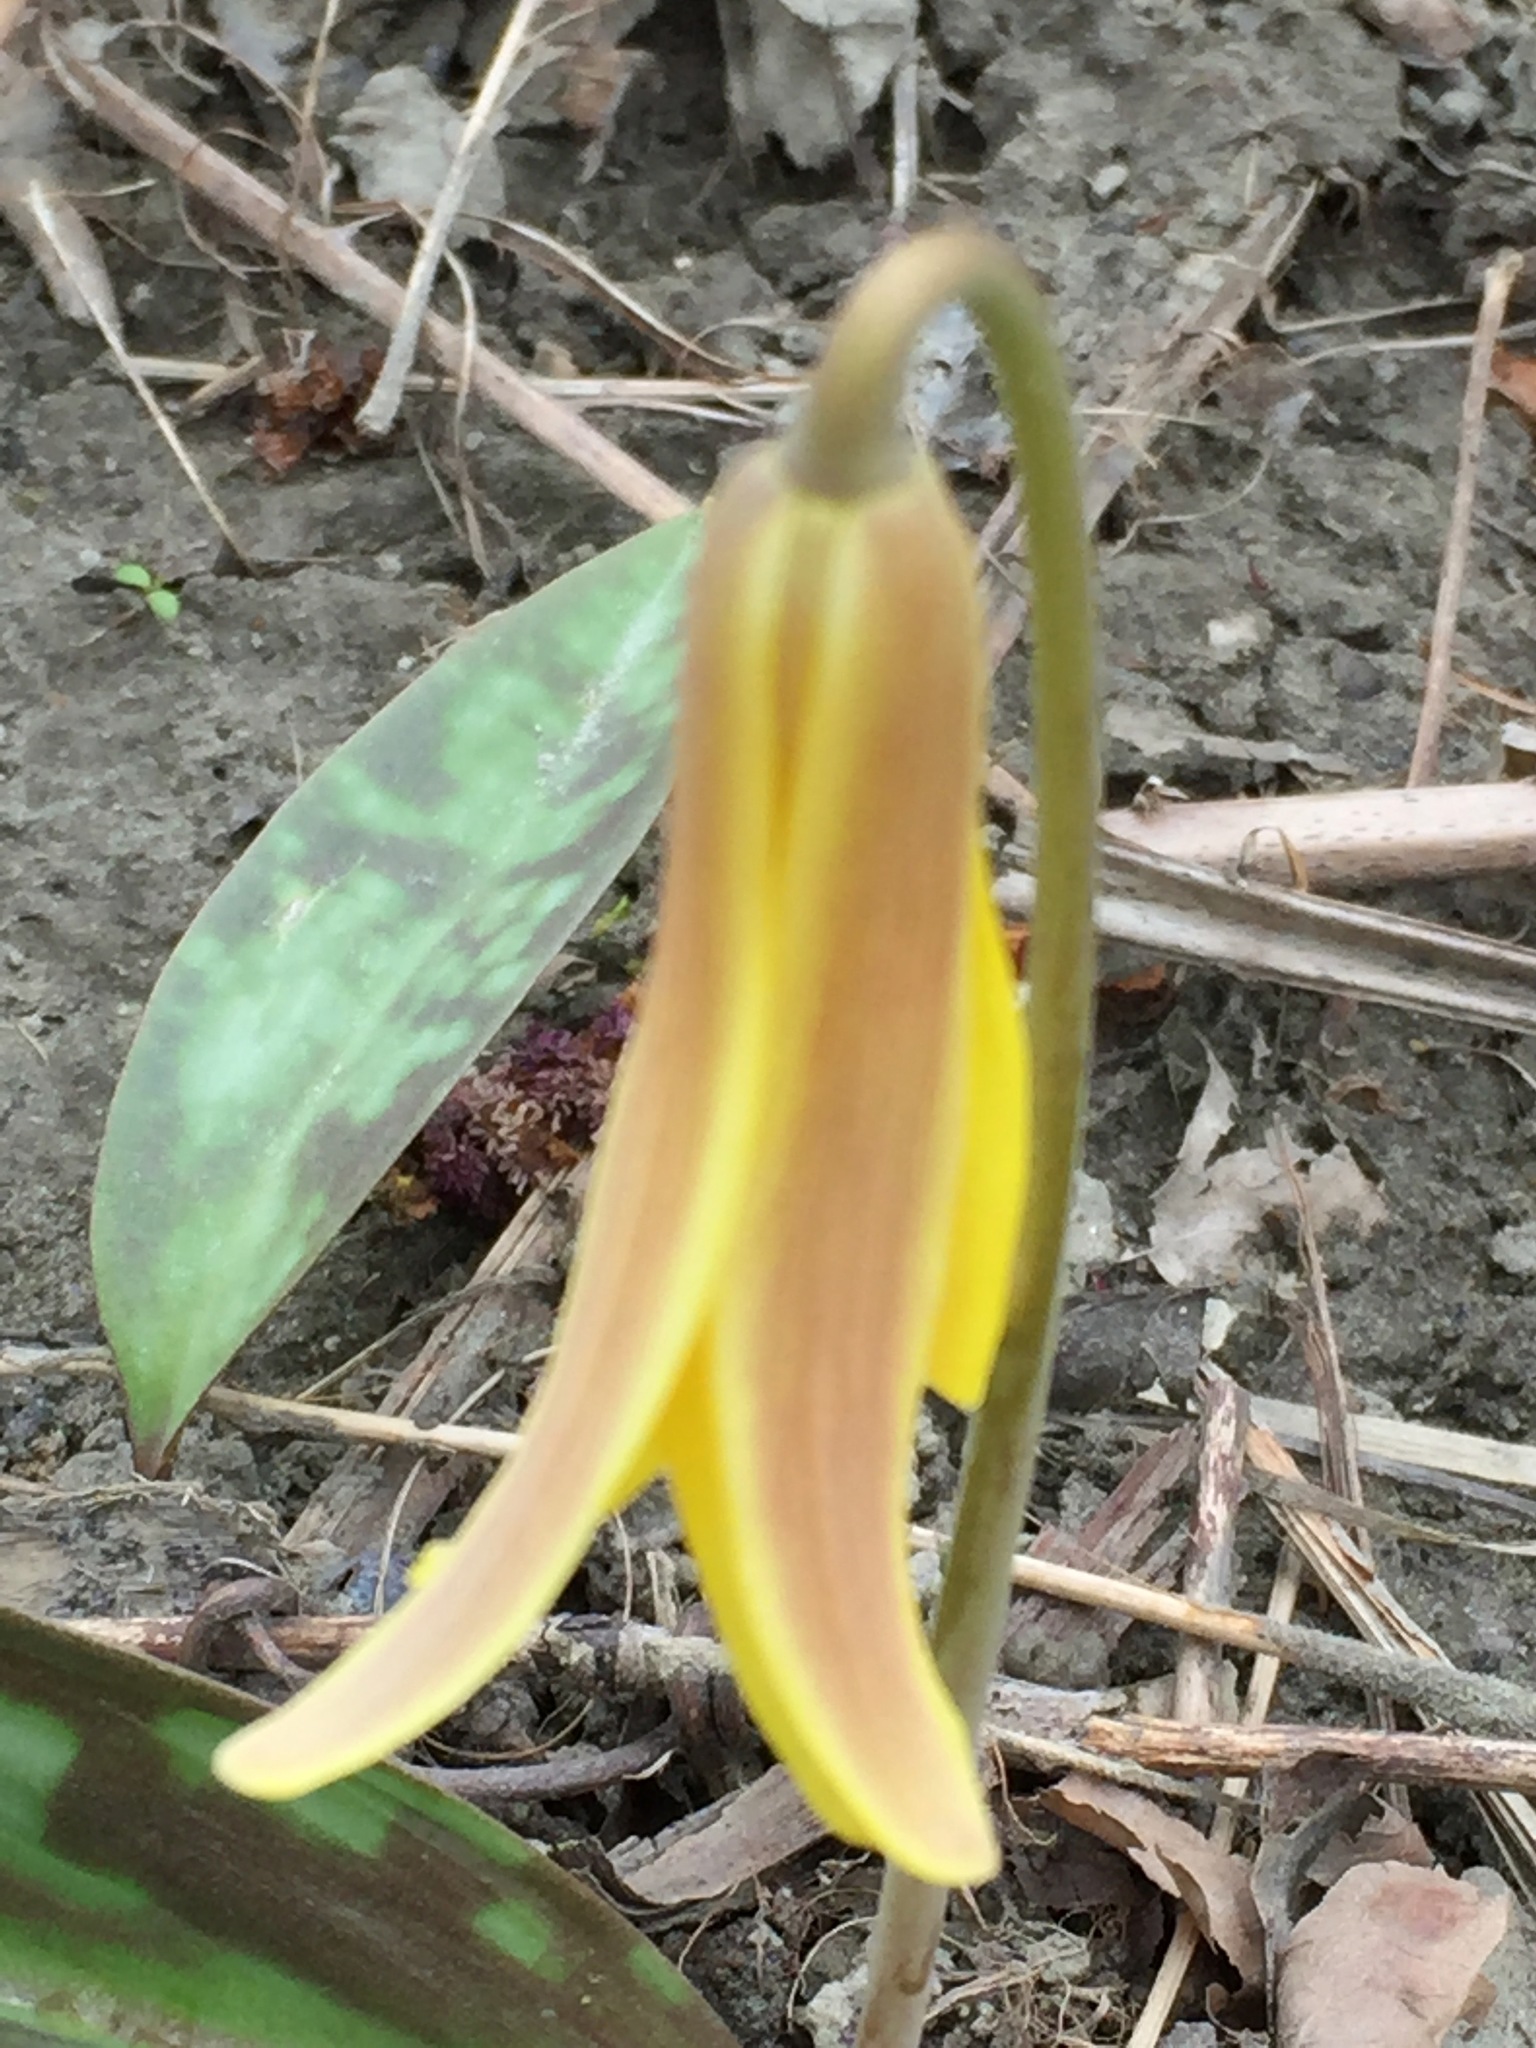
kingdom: Plantae
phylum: Tracheophyta
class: Liliopsida
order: Liliales
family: Liliaceae
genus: Erythronium
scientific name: Erythronium americanum
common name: Yellow adder's-tongue
